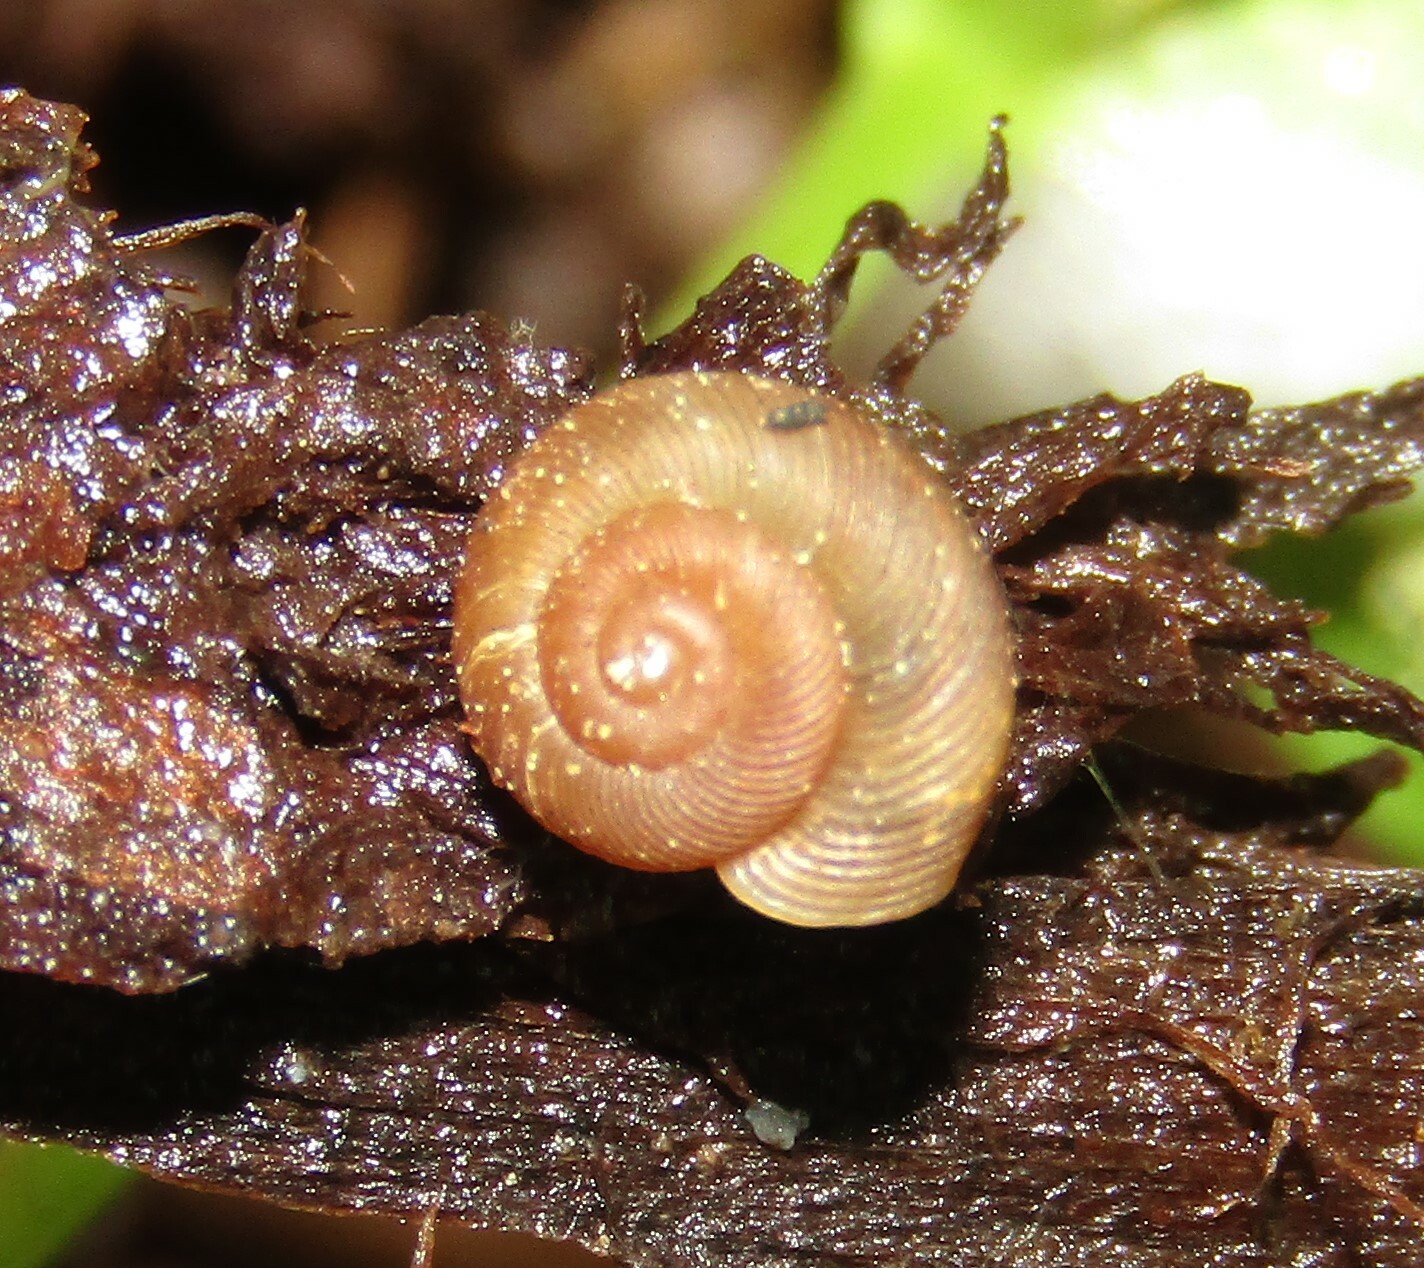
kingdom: Animalia
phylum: Mollusca
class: Gastropoda
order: Stylommatophora
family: Discidae
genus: Discus
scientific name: Discus ruderatus
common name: Brown disc snail
